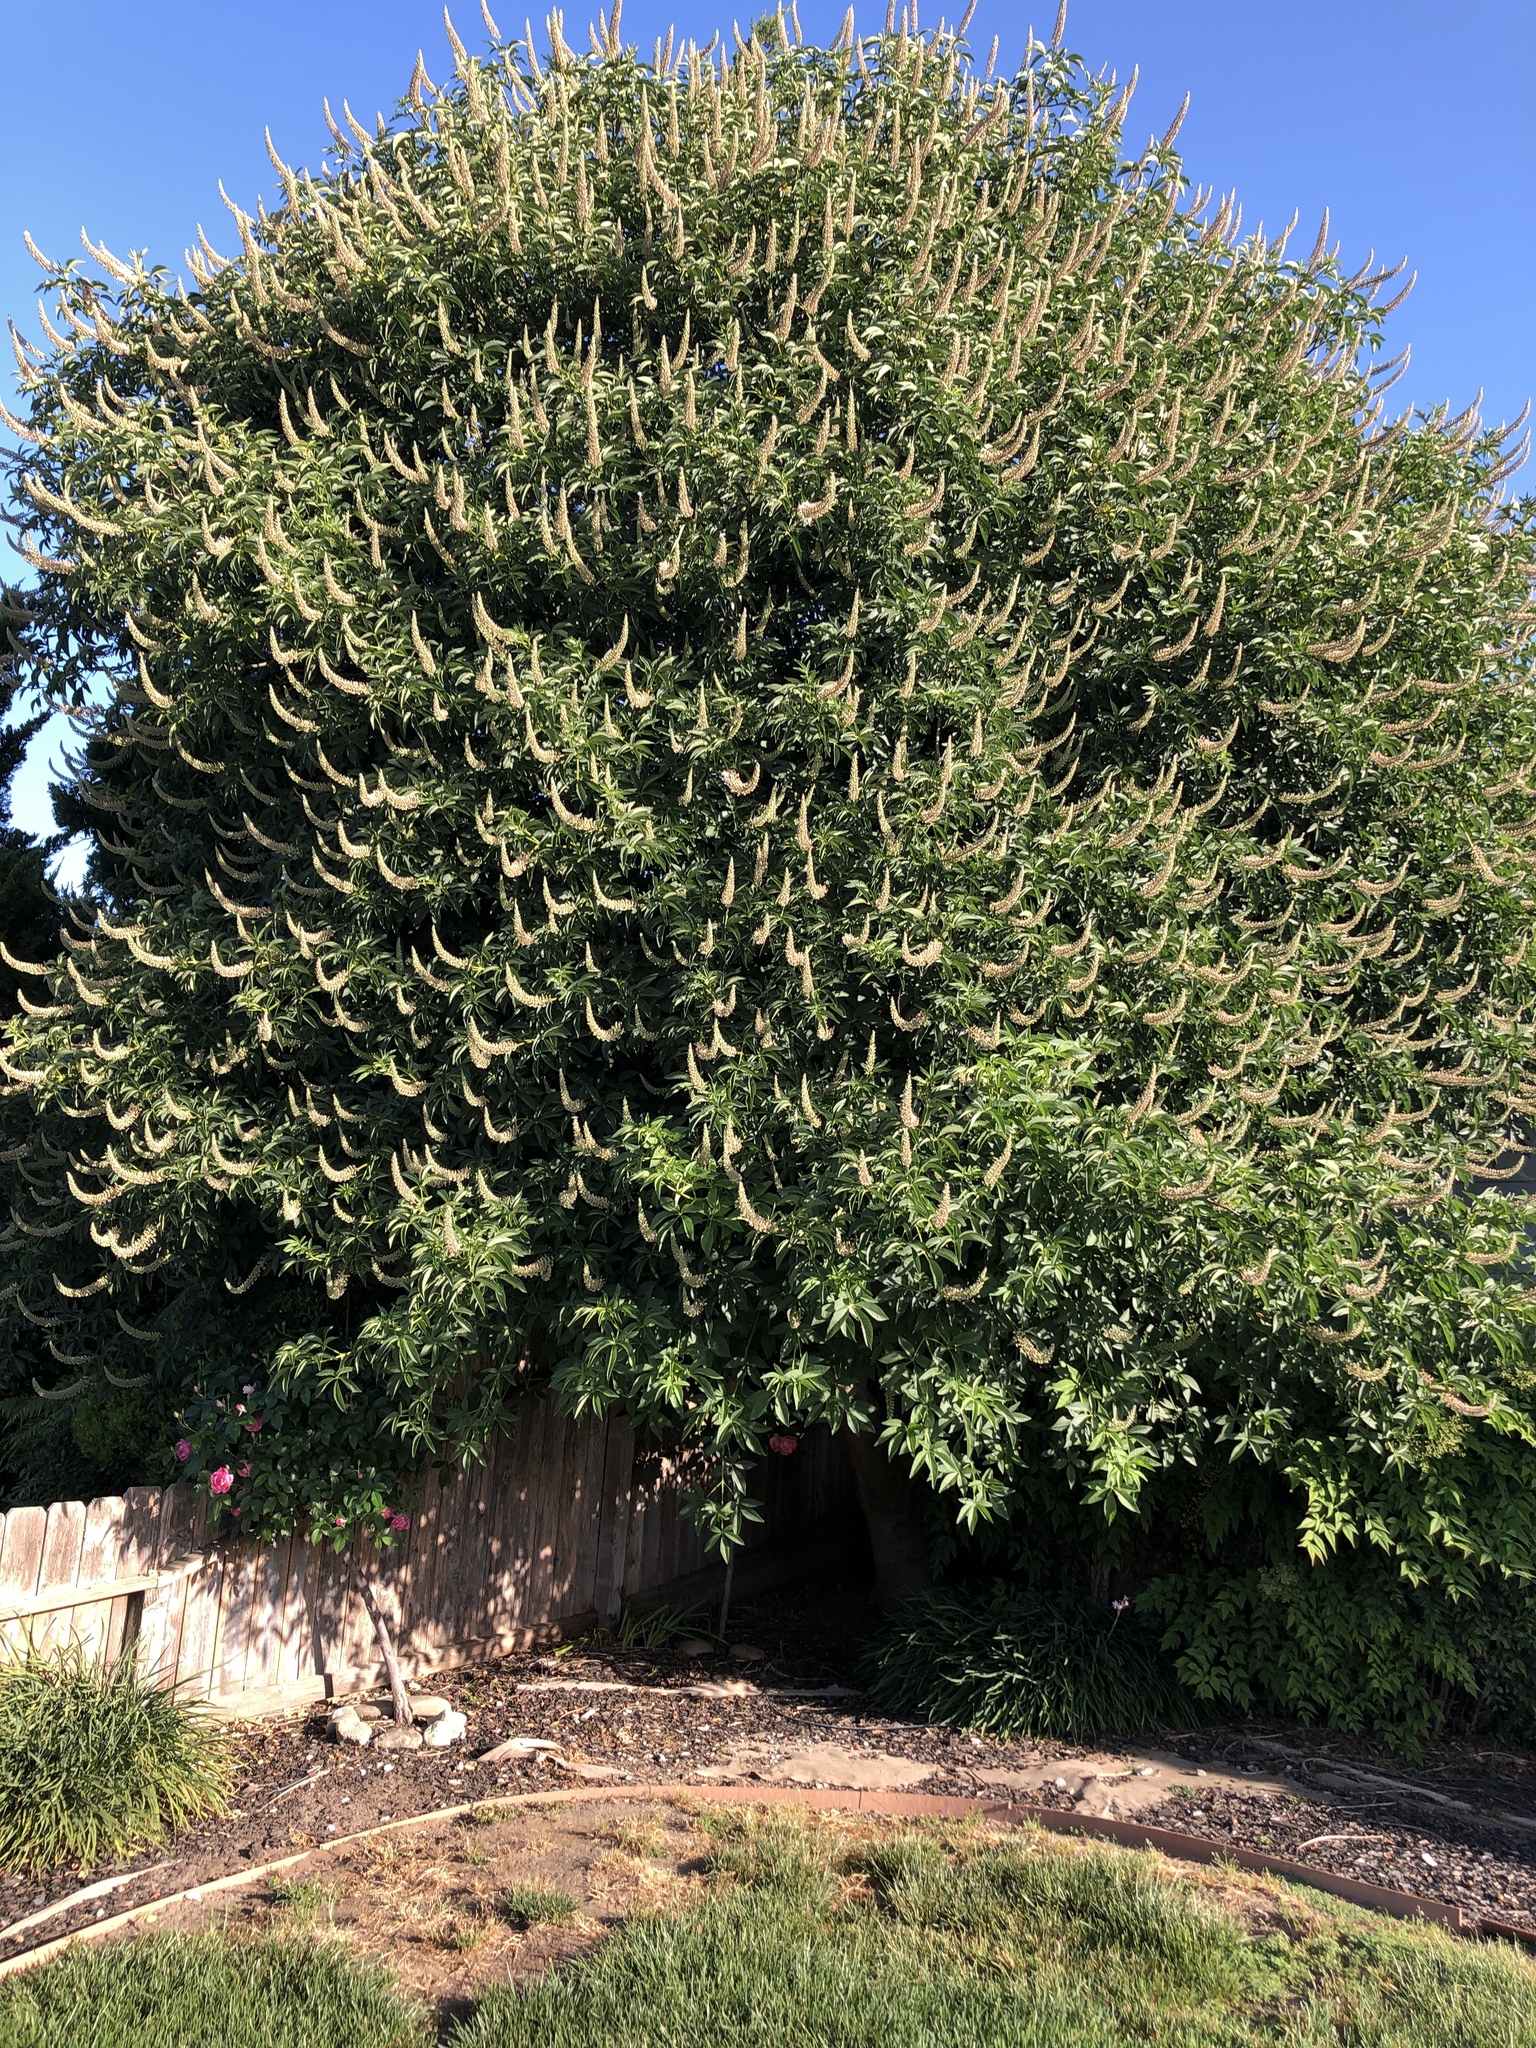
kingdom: Plantae
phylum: Tracheophyta
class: Magnoliopsida
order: Sapindales
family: Sapindaceae
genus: Aesculus
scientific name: Aesculus californica
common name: California buckeye
